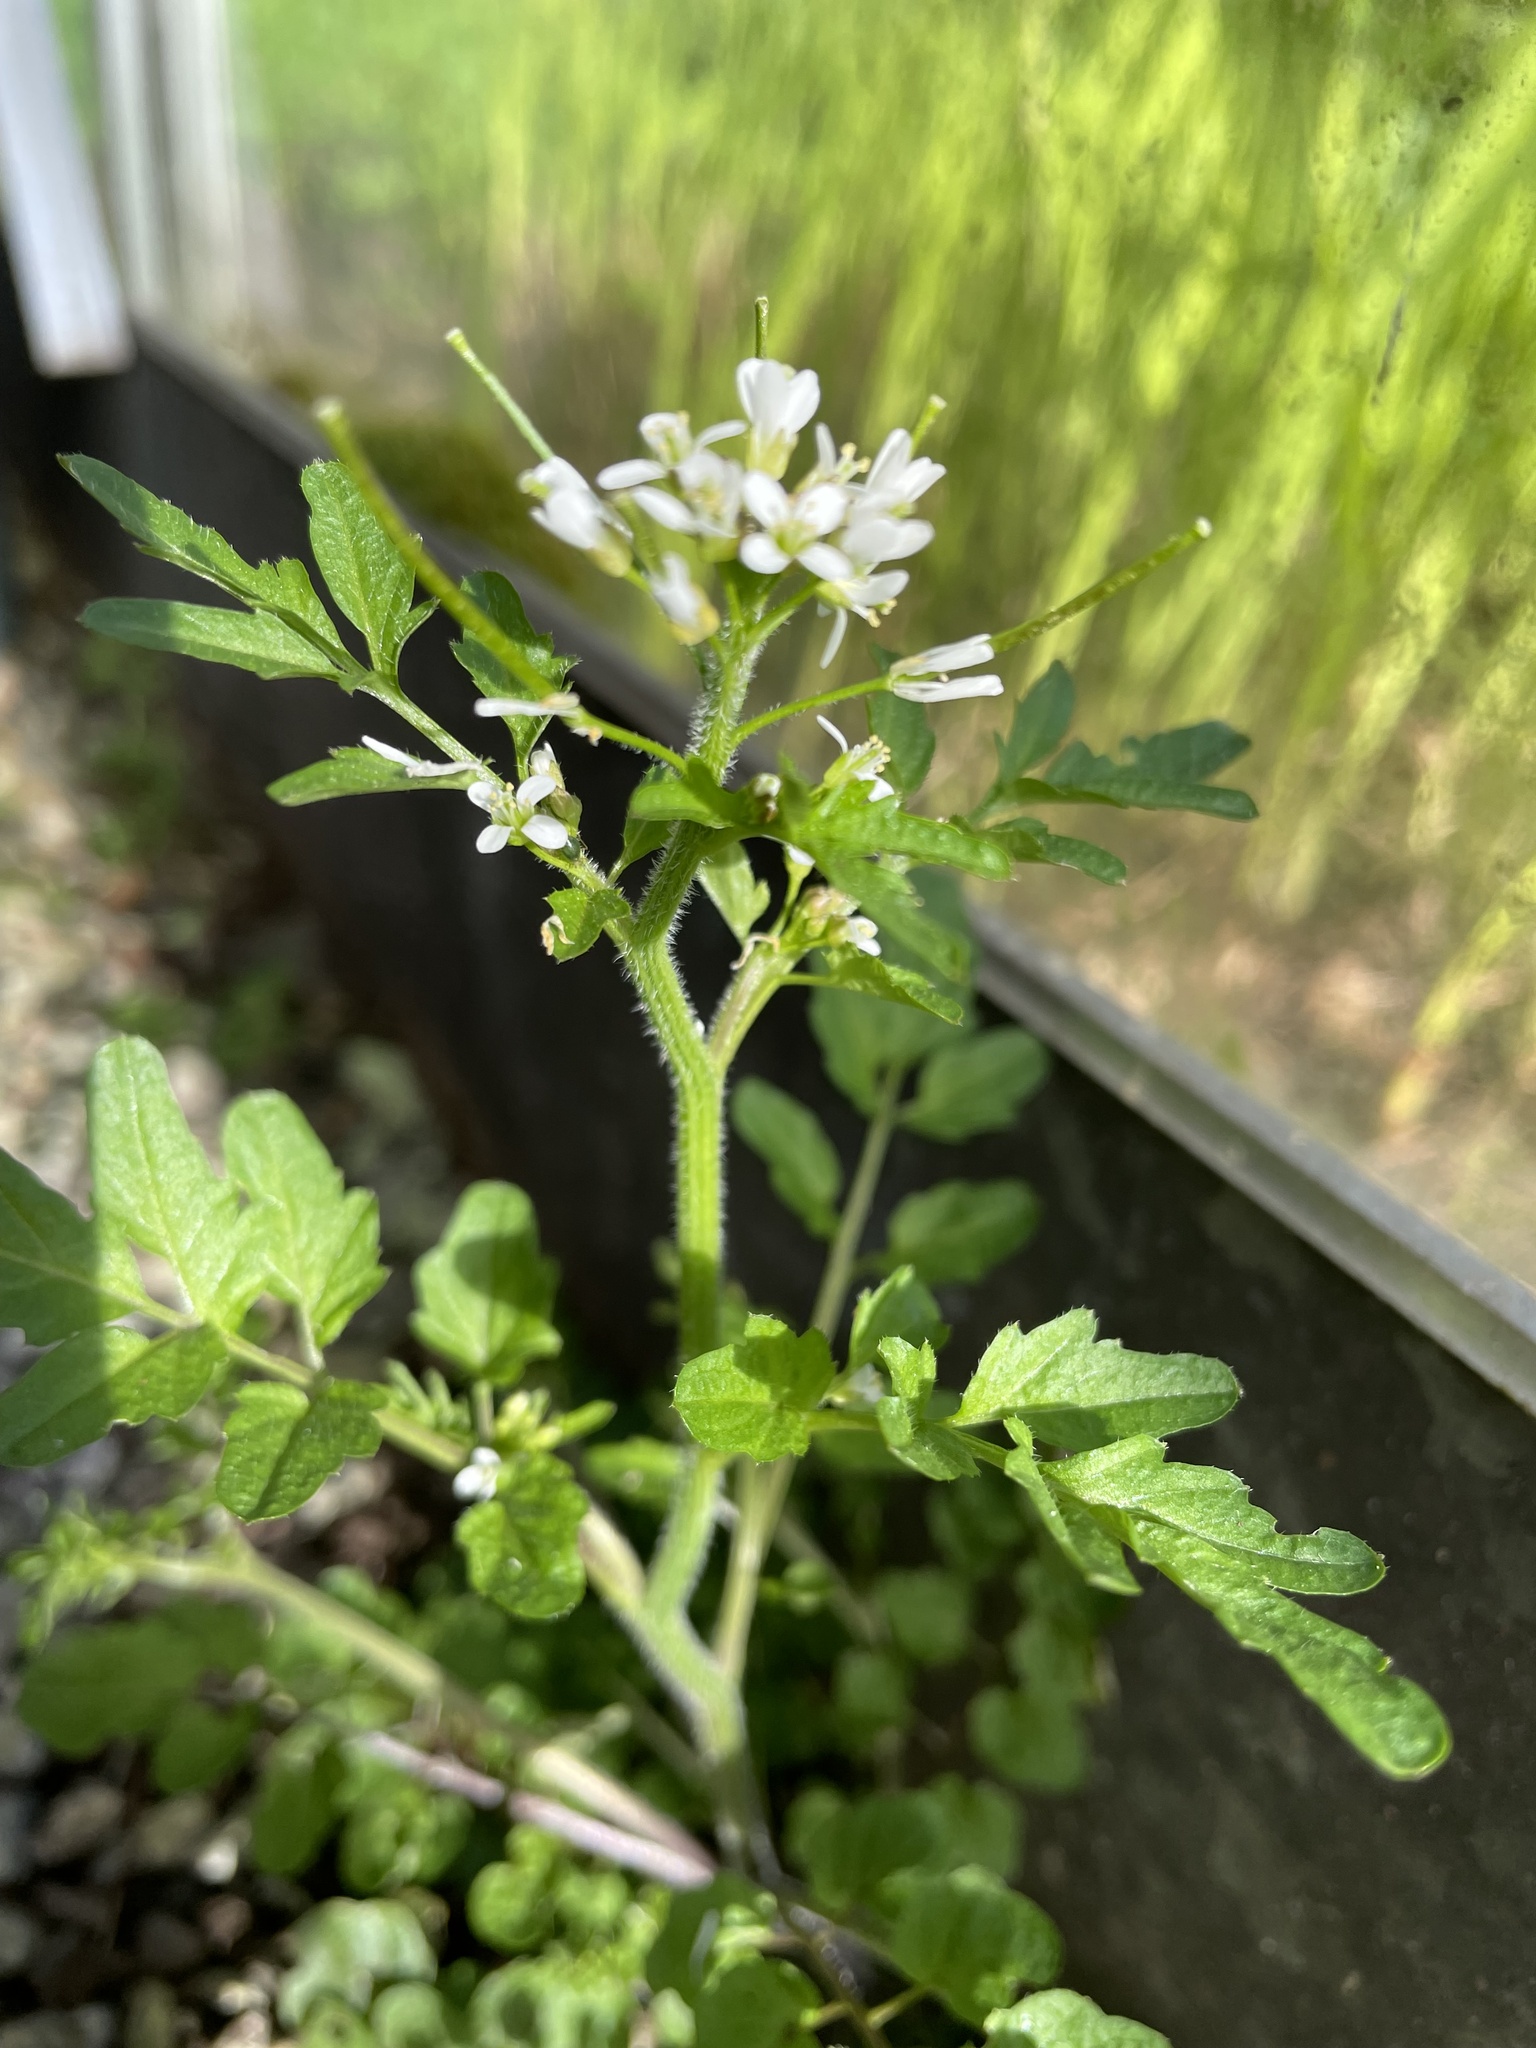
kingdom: Plantae
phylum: Tracheophyta
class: Magnoliopsida
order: Brassicales
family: Brassicaceae
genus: Cardamine
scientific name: Cardamine flexuosa
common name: Woodland bittercress
